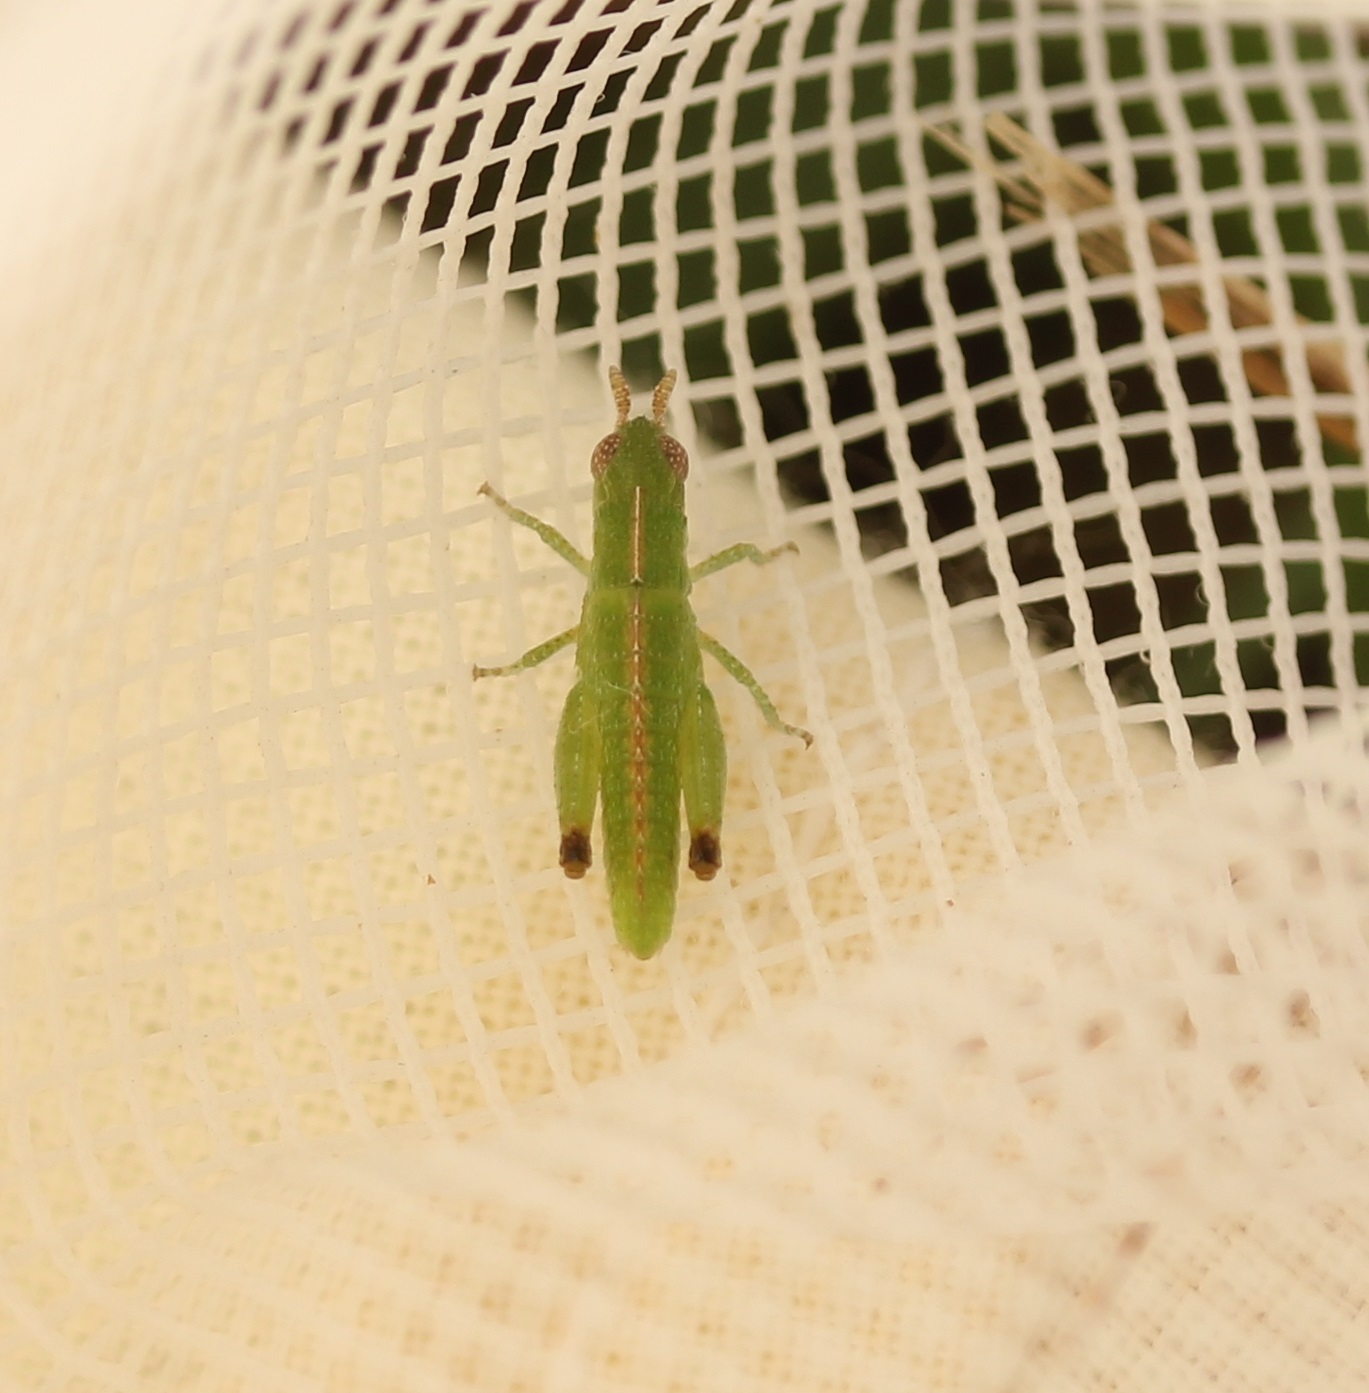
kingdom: Animalia
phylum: Arthropoda
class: Insecta
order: Orthoptera
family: Acrididae
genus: Chortophaga
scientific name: Chortophaga viridifasciata
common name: Green-striped grasshopper
